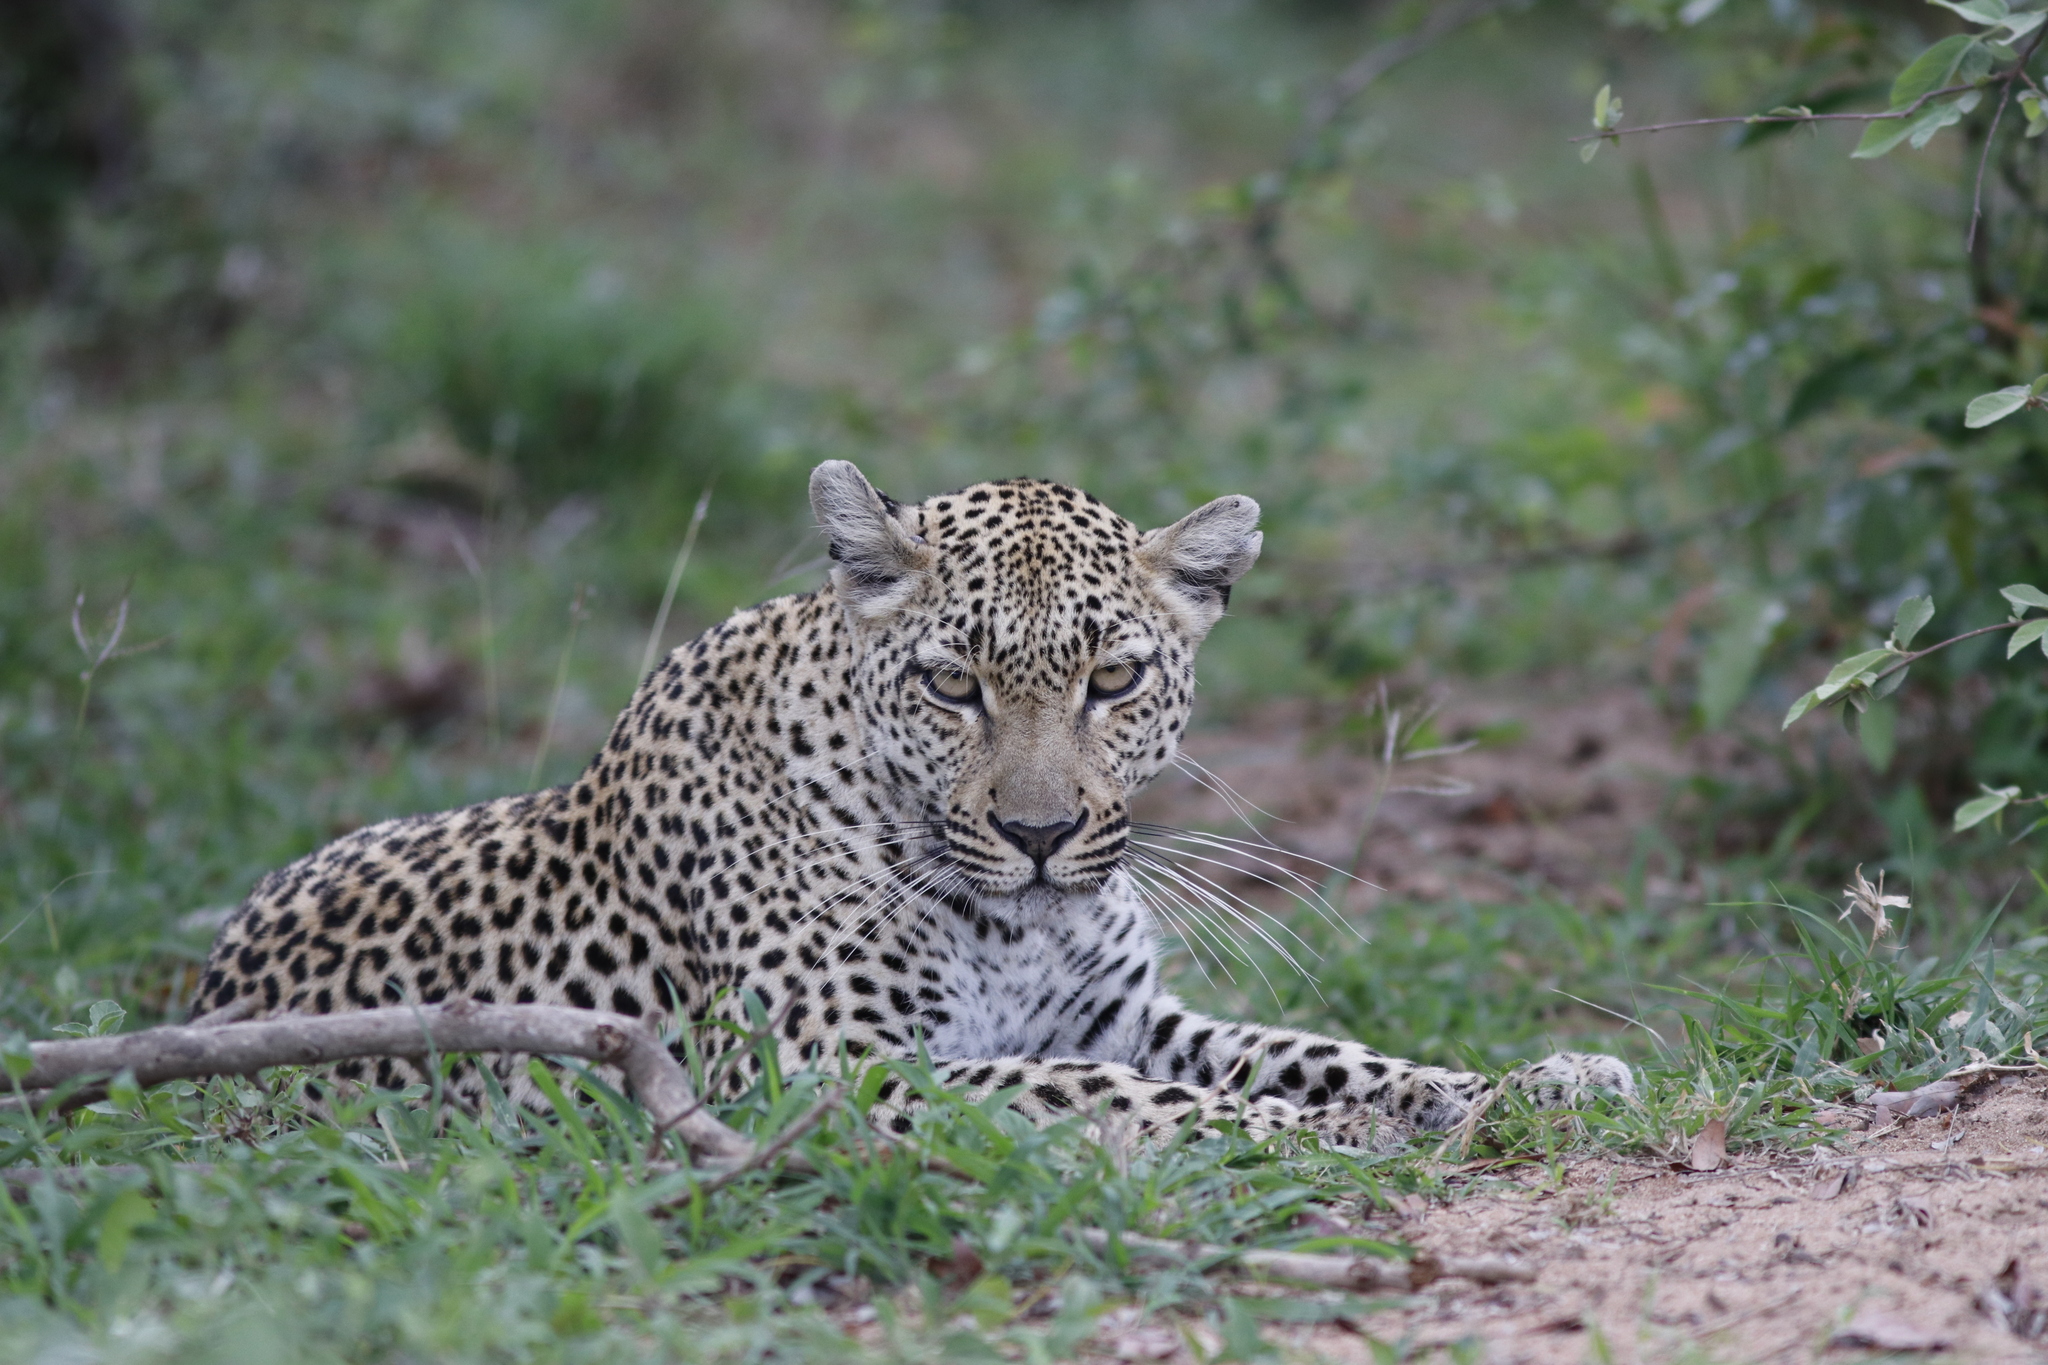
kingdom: Animalia
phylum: Chordata
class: Mammalia
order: Carnivora
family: Felidae
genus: Panthera
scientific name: Panthera pardus
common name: Leopard
